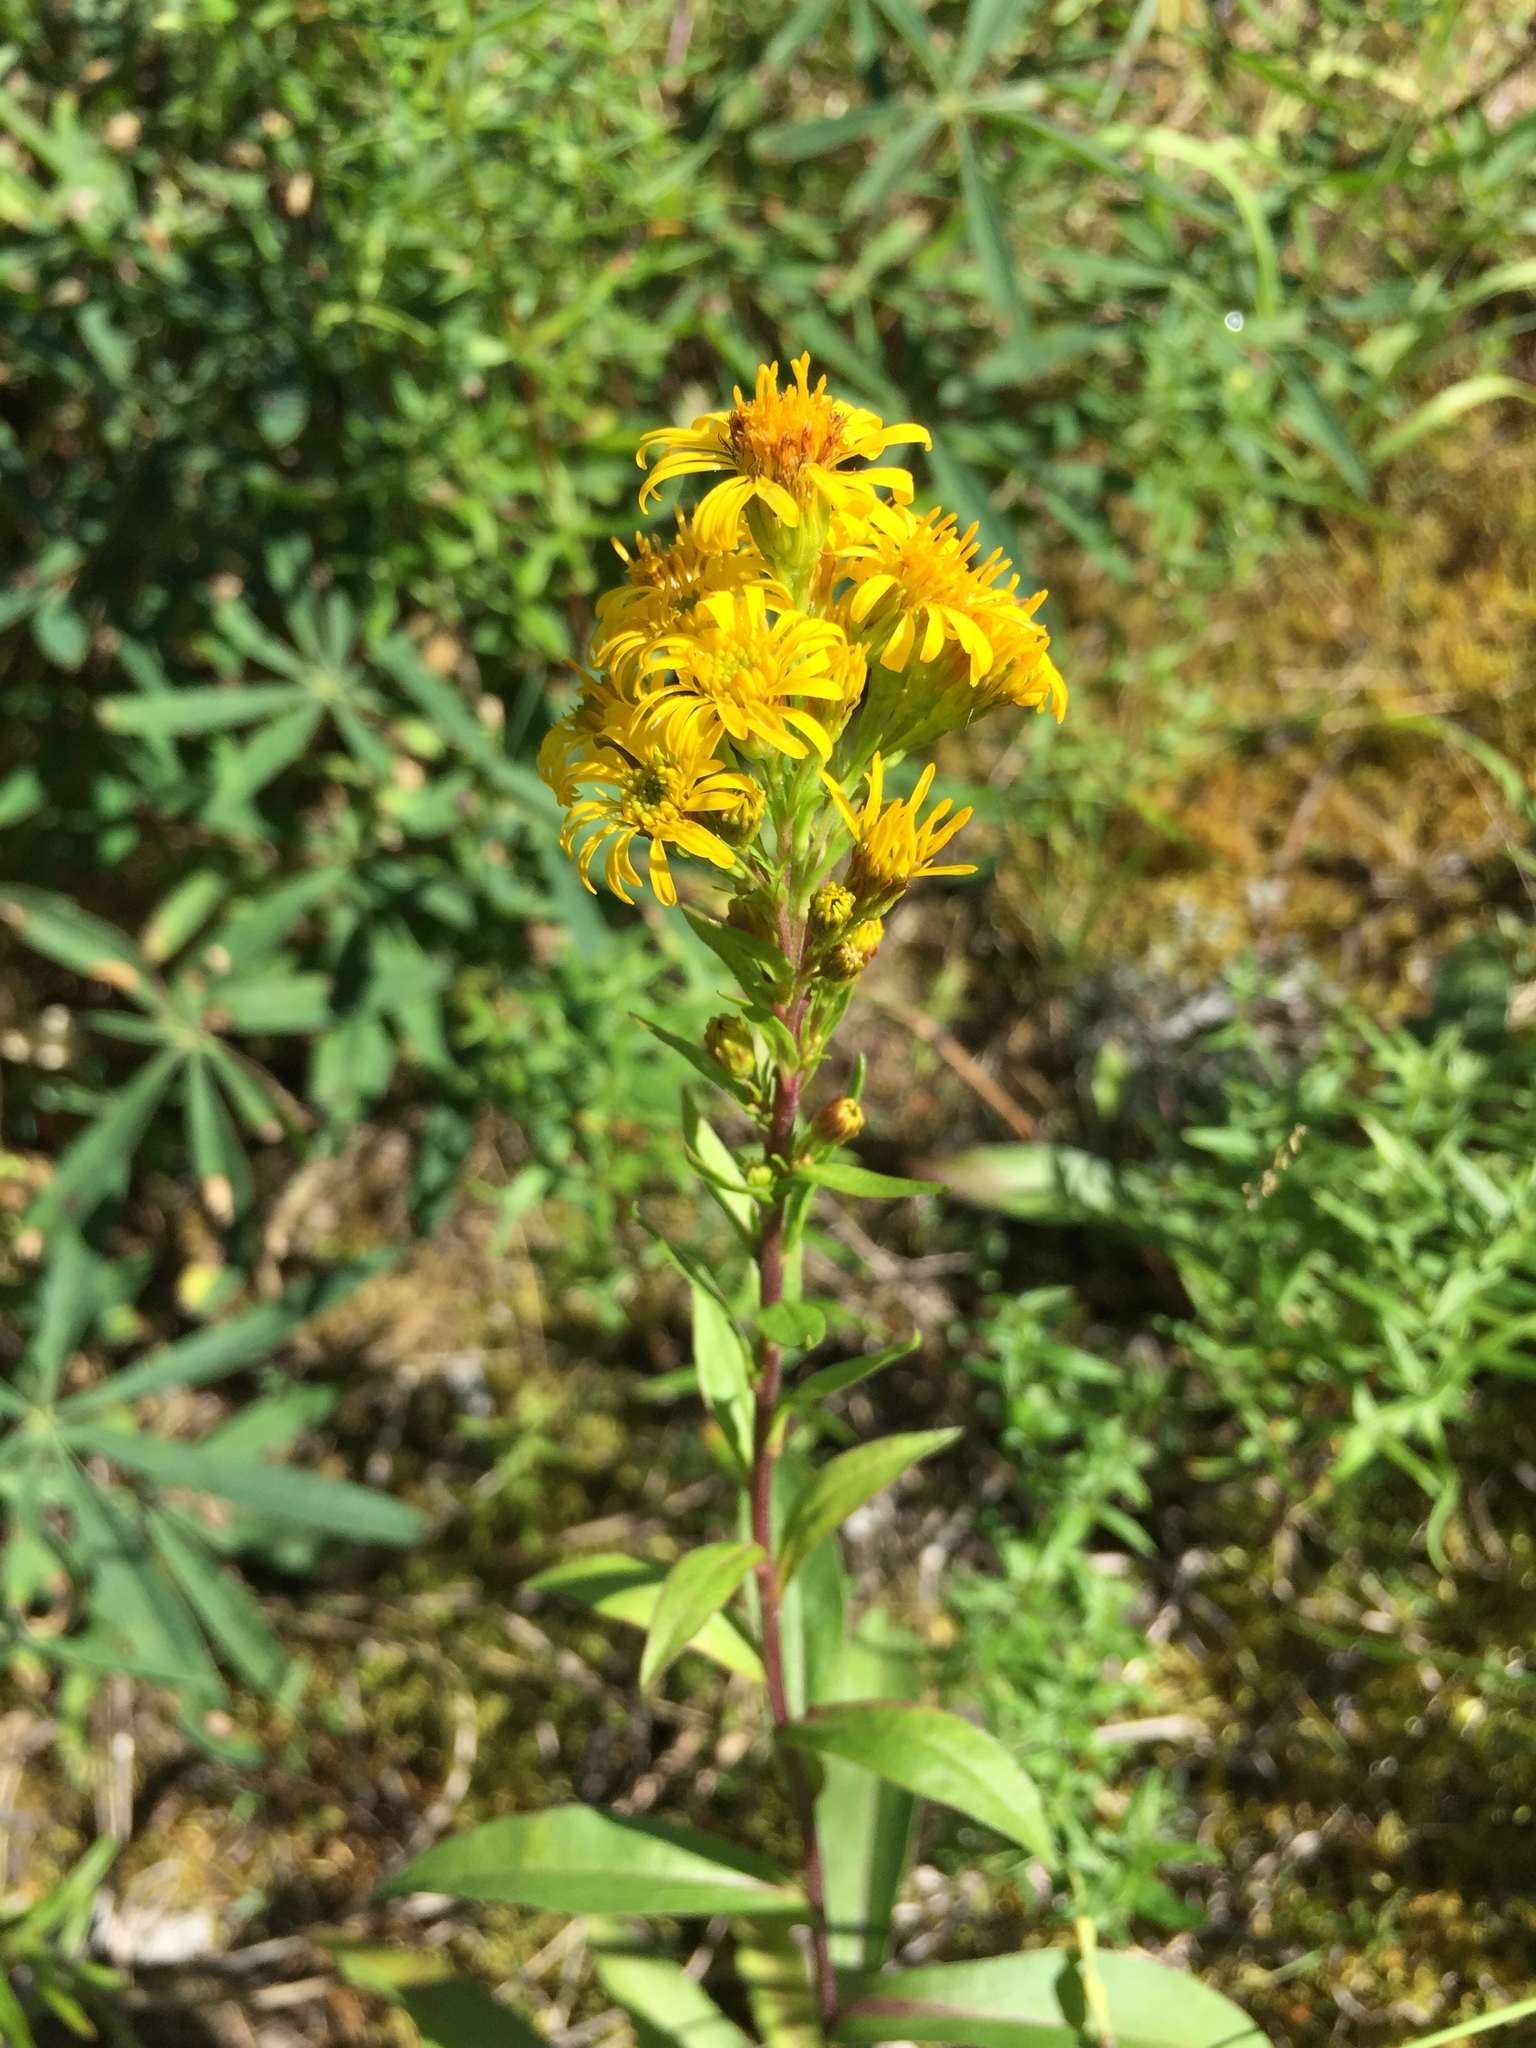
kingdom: Plantae
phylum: Tracheophyta
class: Magnoliopsida
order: Asterales
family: Asteraceae
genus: Solidago
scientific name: Solidago multiradiata
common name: Northern goldenrod
